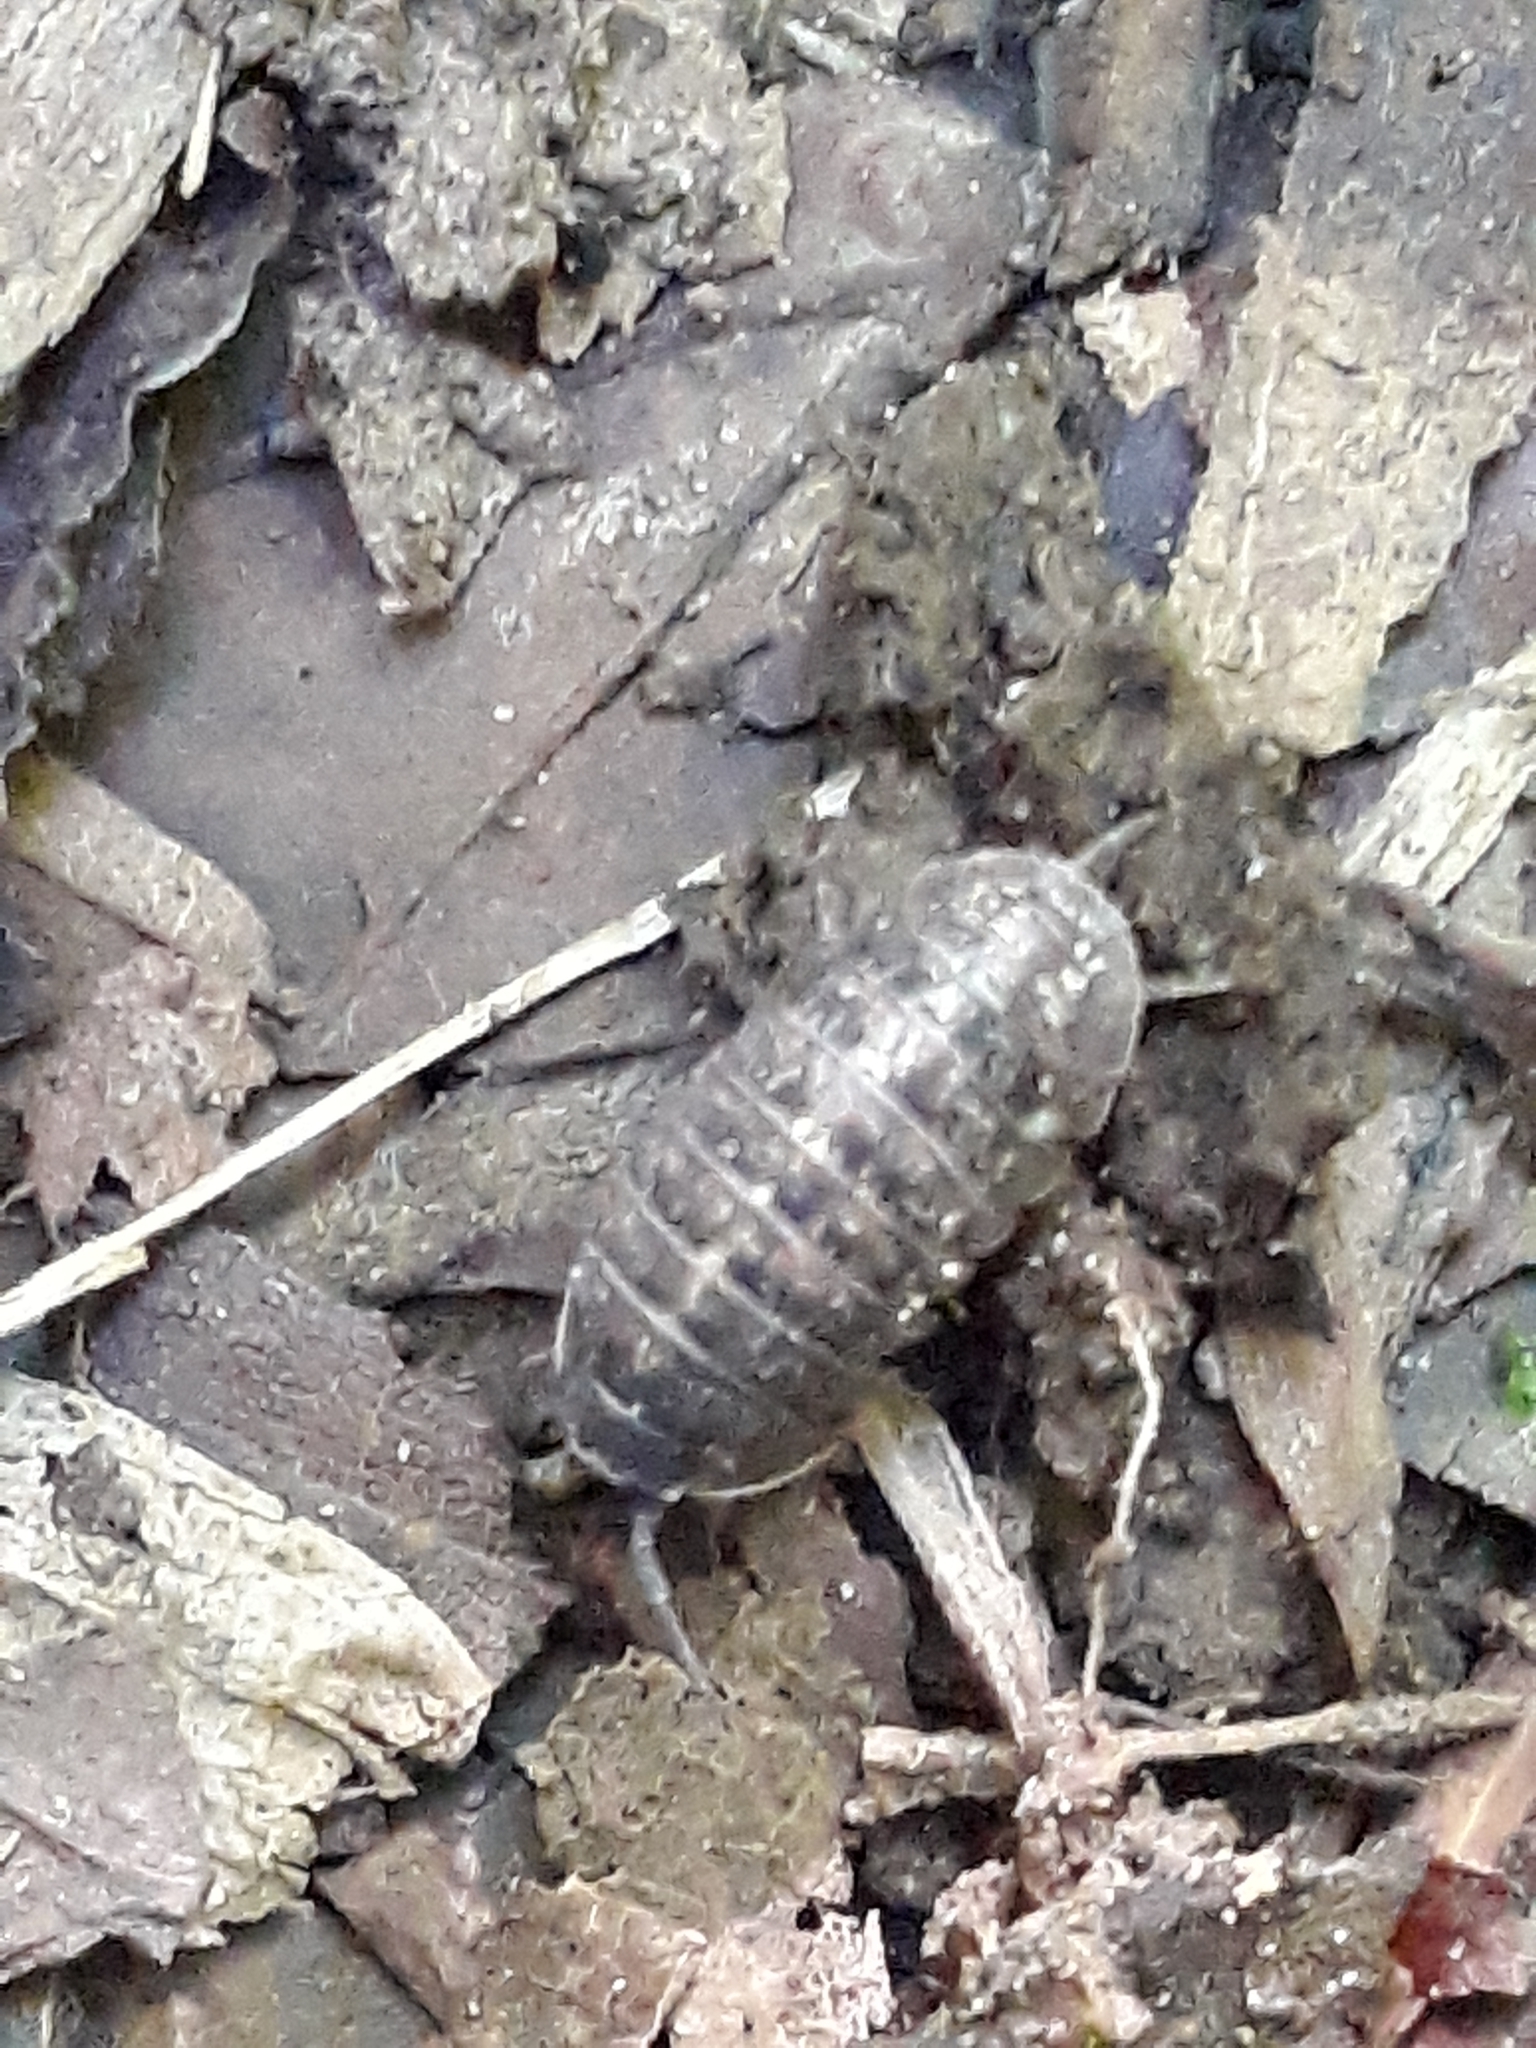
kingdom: Animalia
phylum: Arthropoda
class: Malacostraca
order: Isopoda
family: Armadillidiidae
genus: Armadillidium
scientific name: Armadillidium opacum
